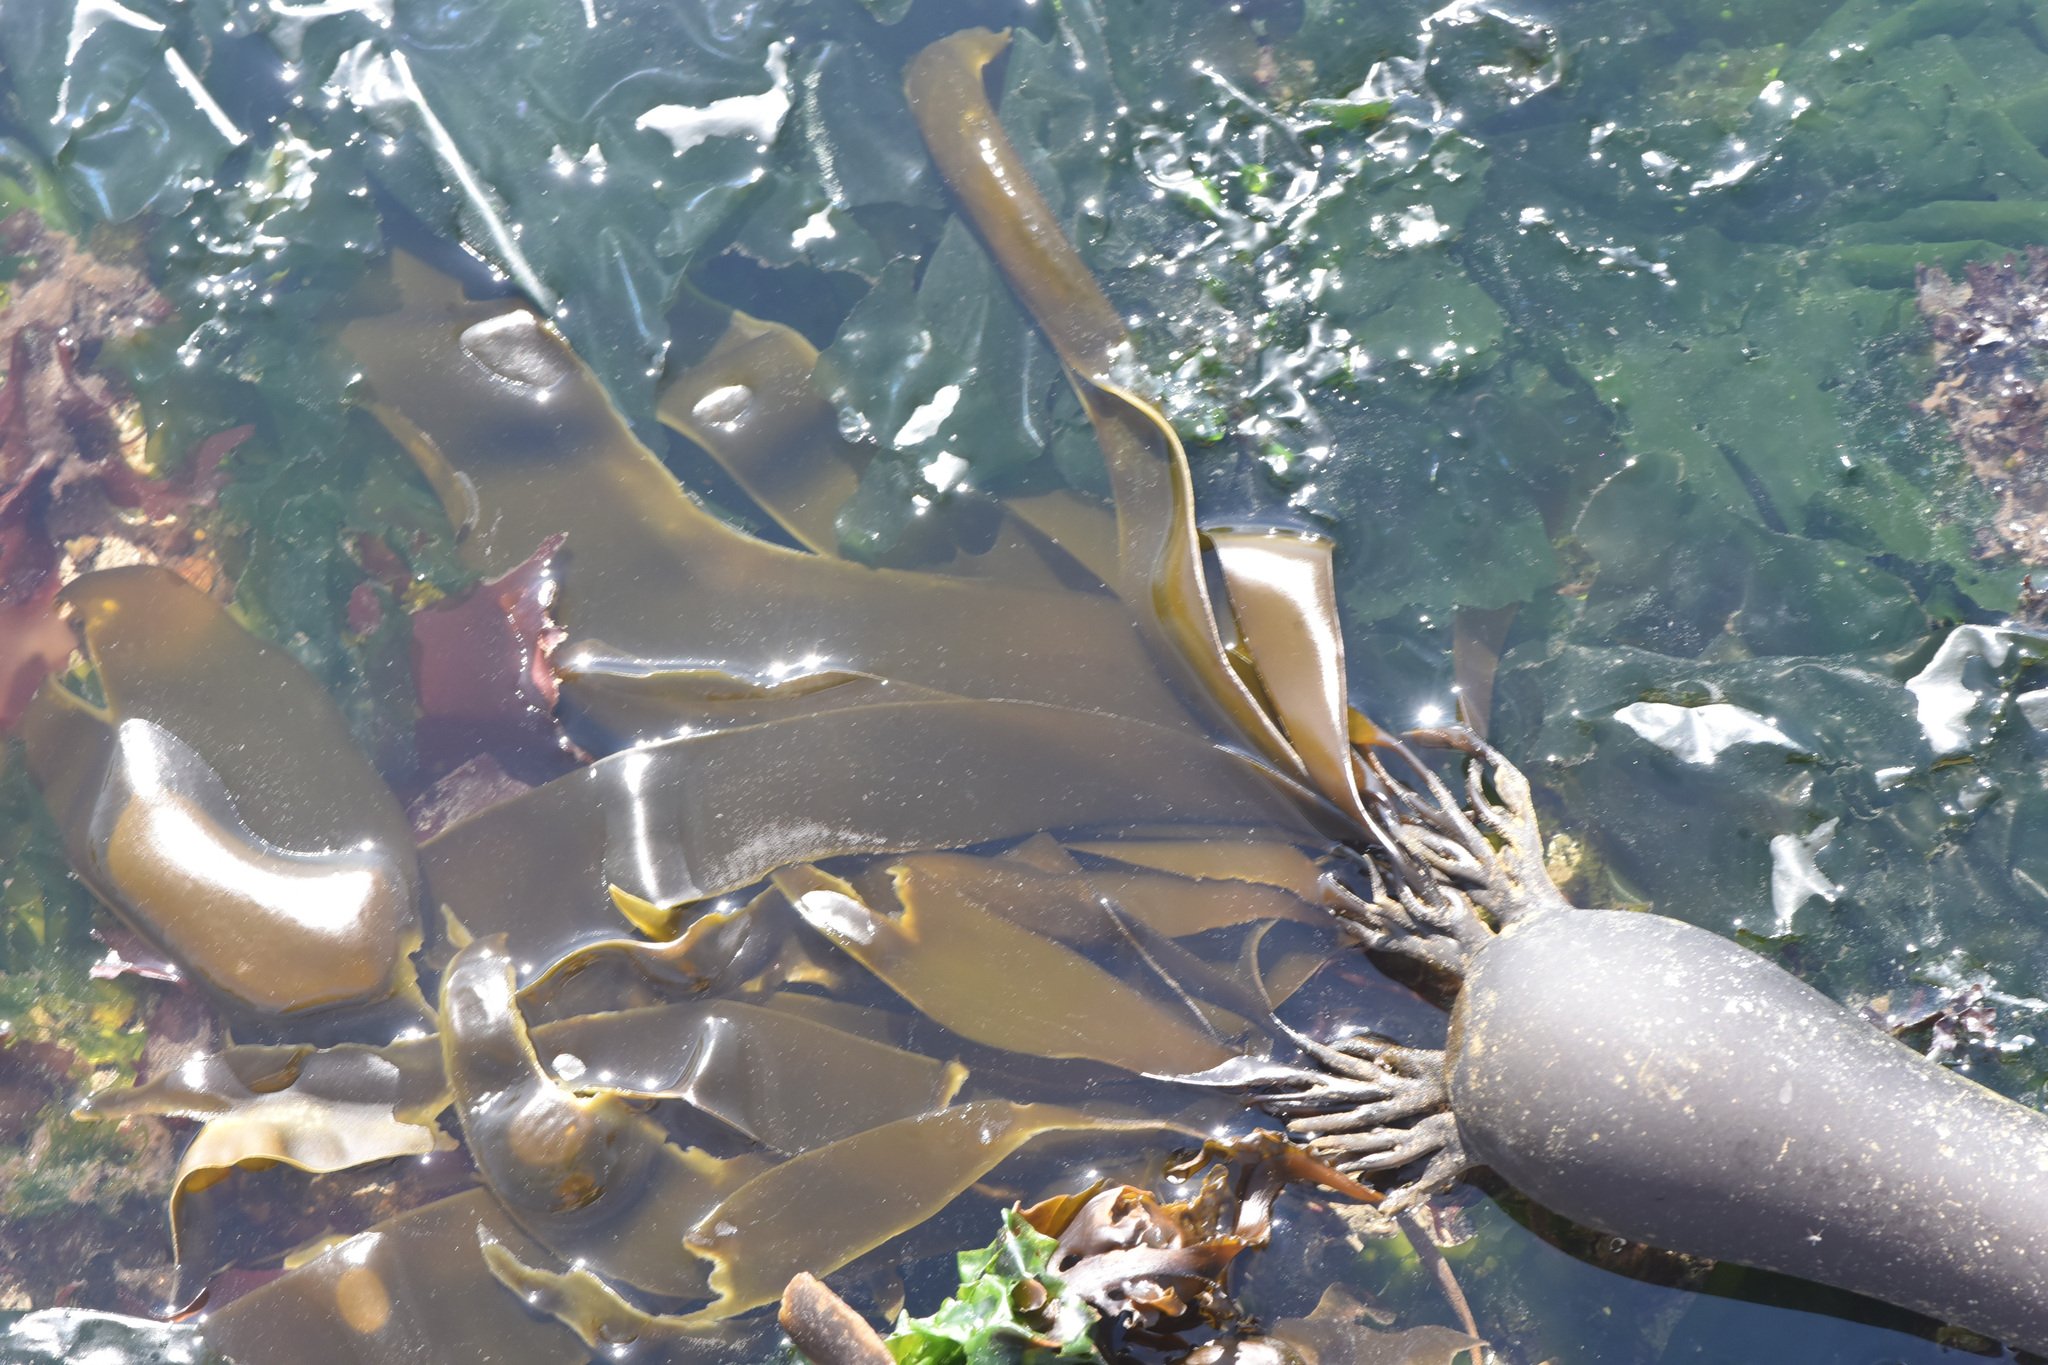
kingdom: Chromista
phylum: Ochrophyta
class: Phaeophyceae
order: Laminariales
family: Laminariaceae
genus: Nereocystis
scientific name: Nereocystis luetkeana
